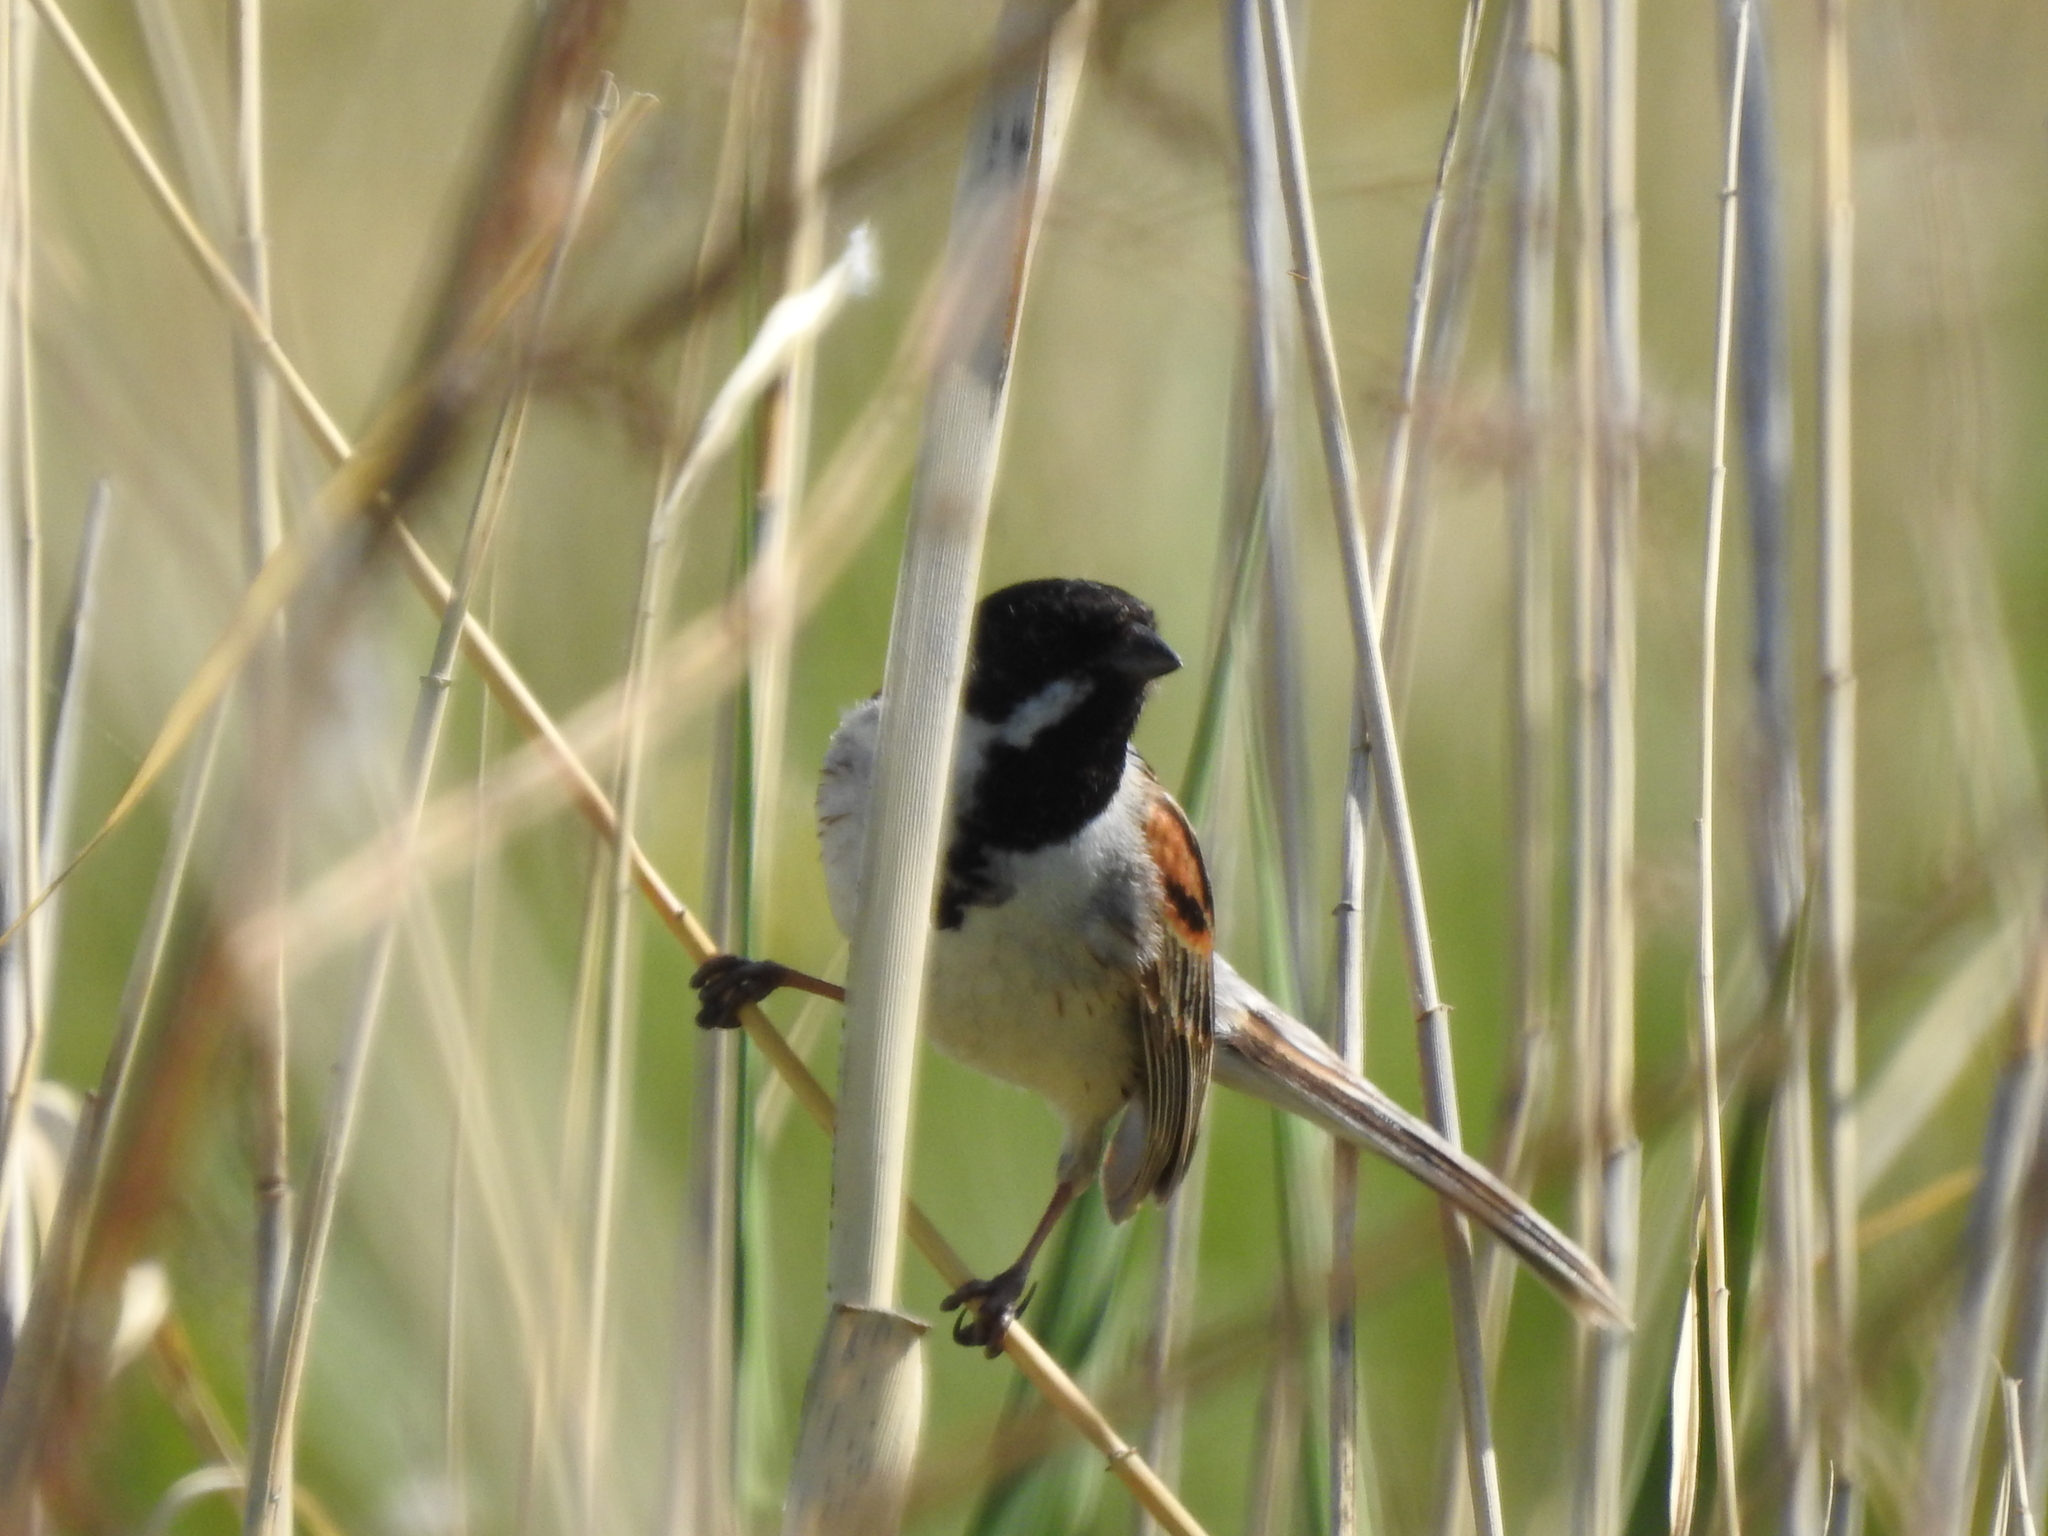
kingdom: Animalia
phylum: Chordata
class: Aves
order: Passeriformes
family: Emberizidae
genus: Emberiza
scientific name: Emberiza schoeniclus
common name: Reed bunting
